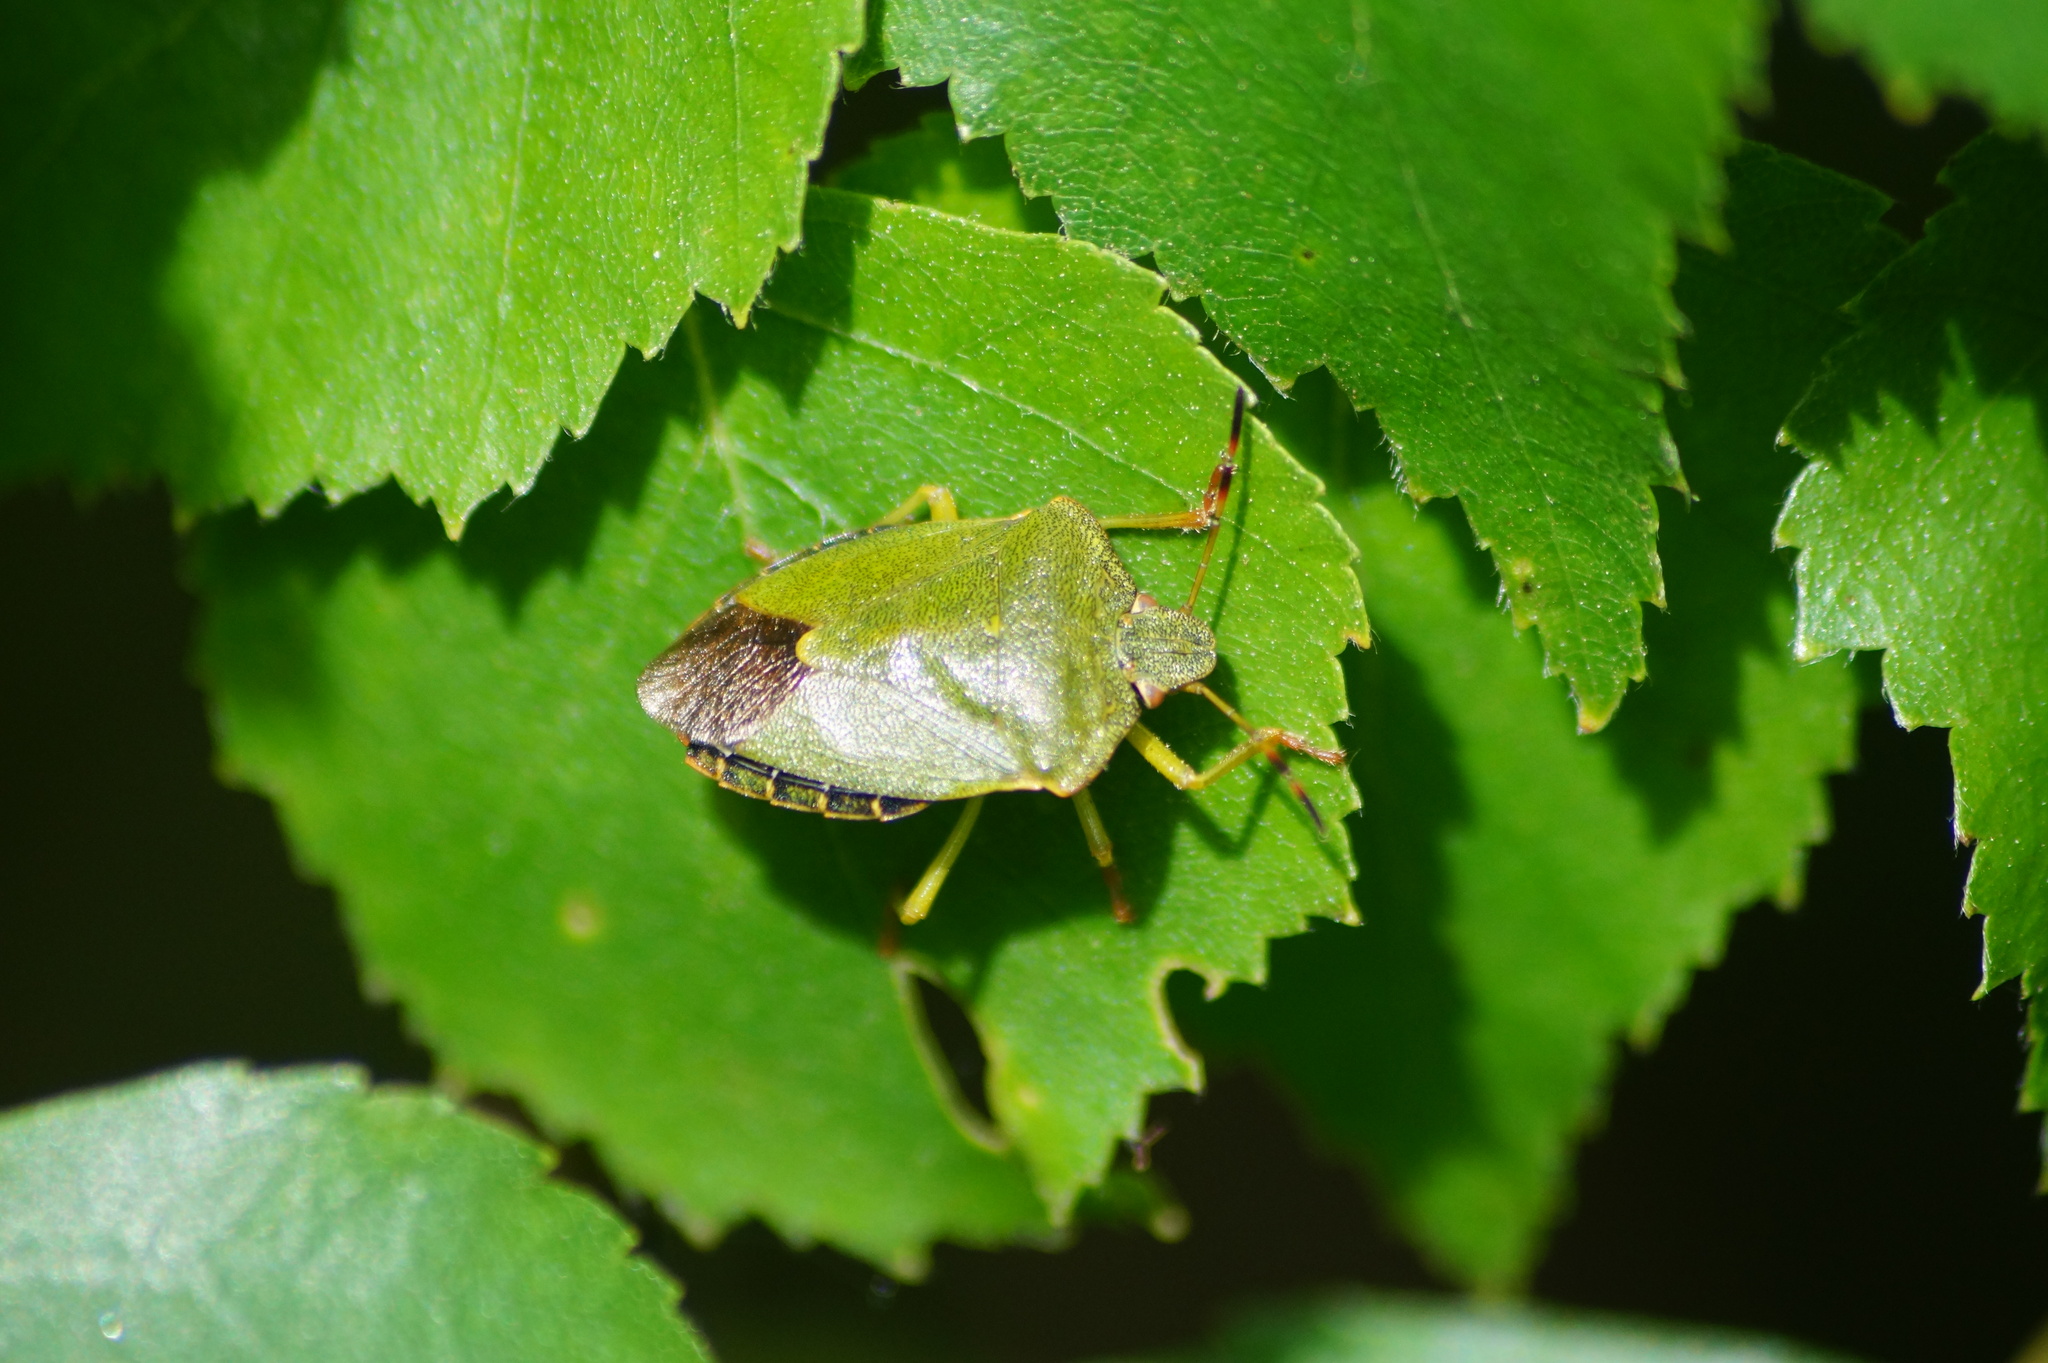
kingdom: Animalia
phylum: Arthropoda
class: Insecta
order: Hemiptera
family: Pentatomidae
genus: Palomena
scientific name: Palomena prasina
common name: Green shieldbug
